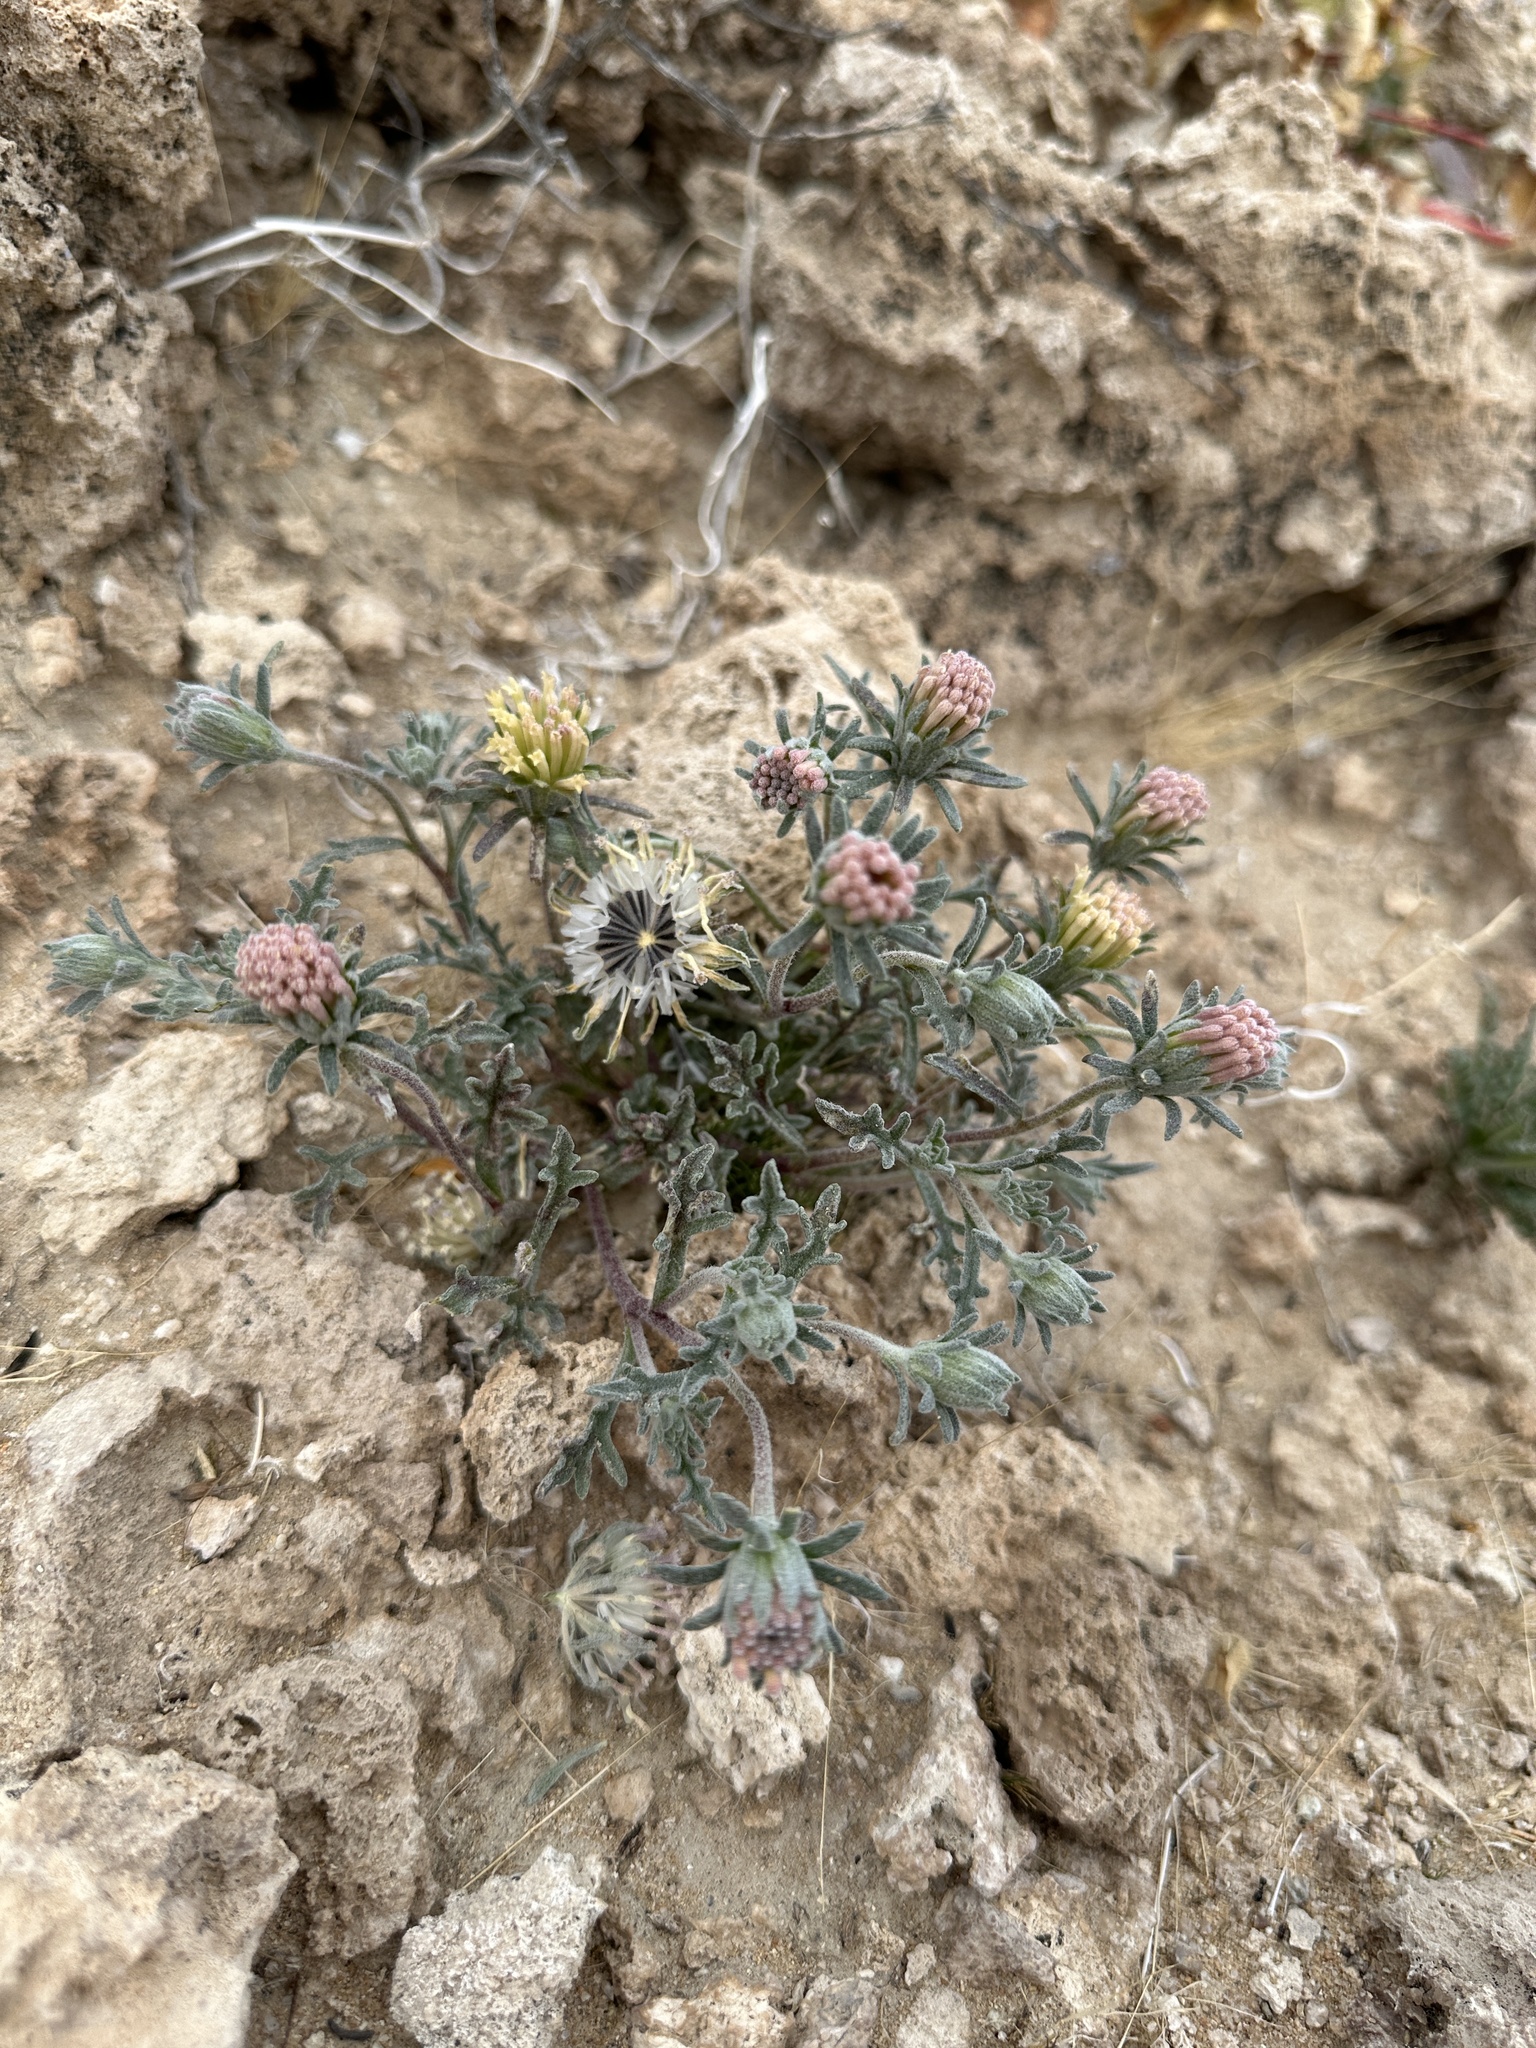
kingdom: Plantae
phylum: Tracheophyta
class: Magnoliopsida
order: Asterales
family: Asteraceae
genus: Chaenactis
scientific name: Chaenactis macrantha
